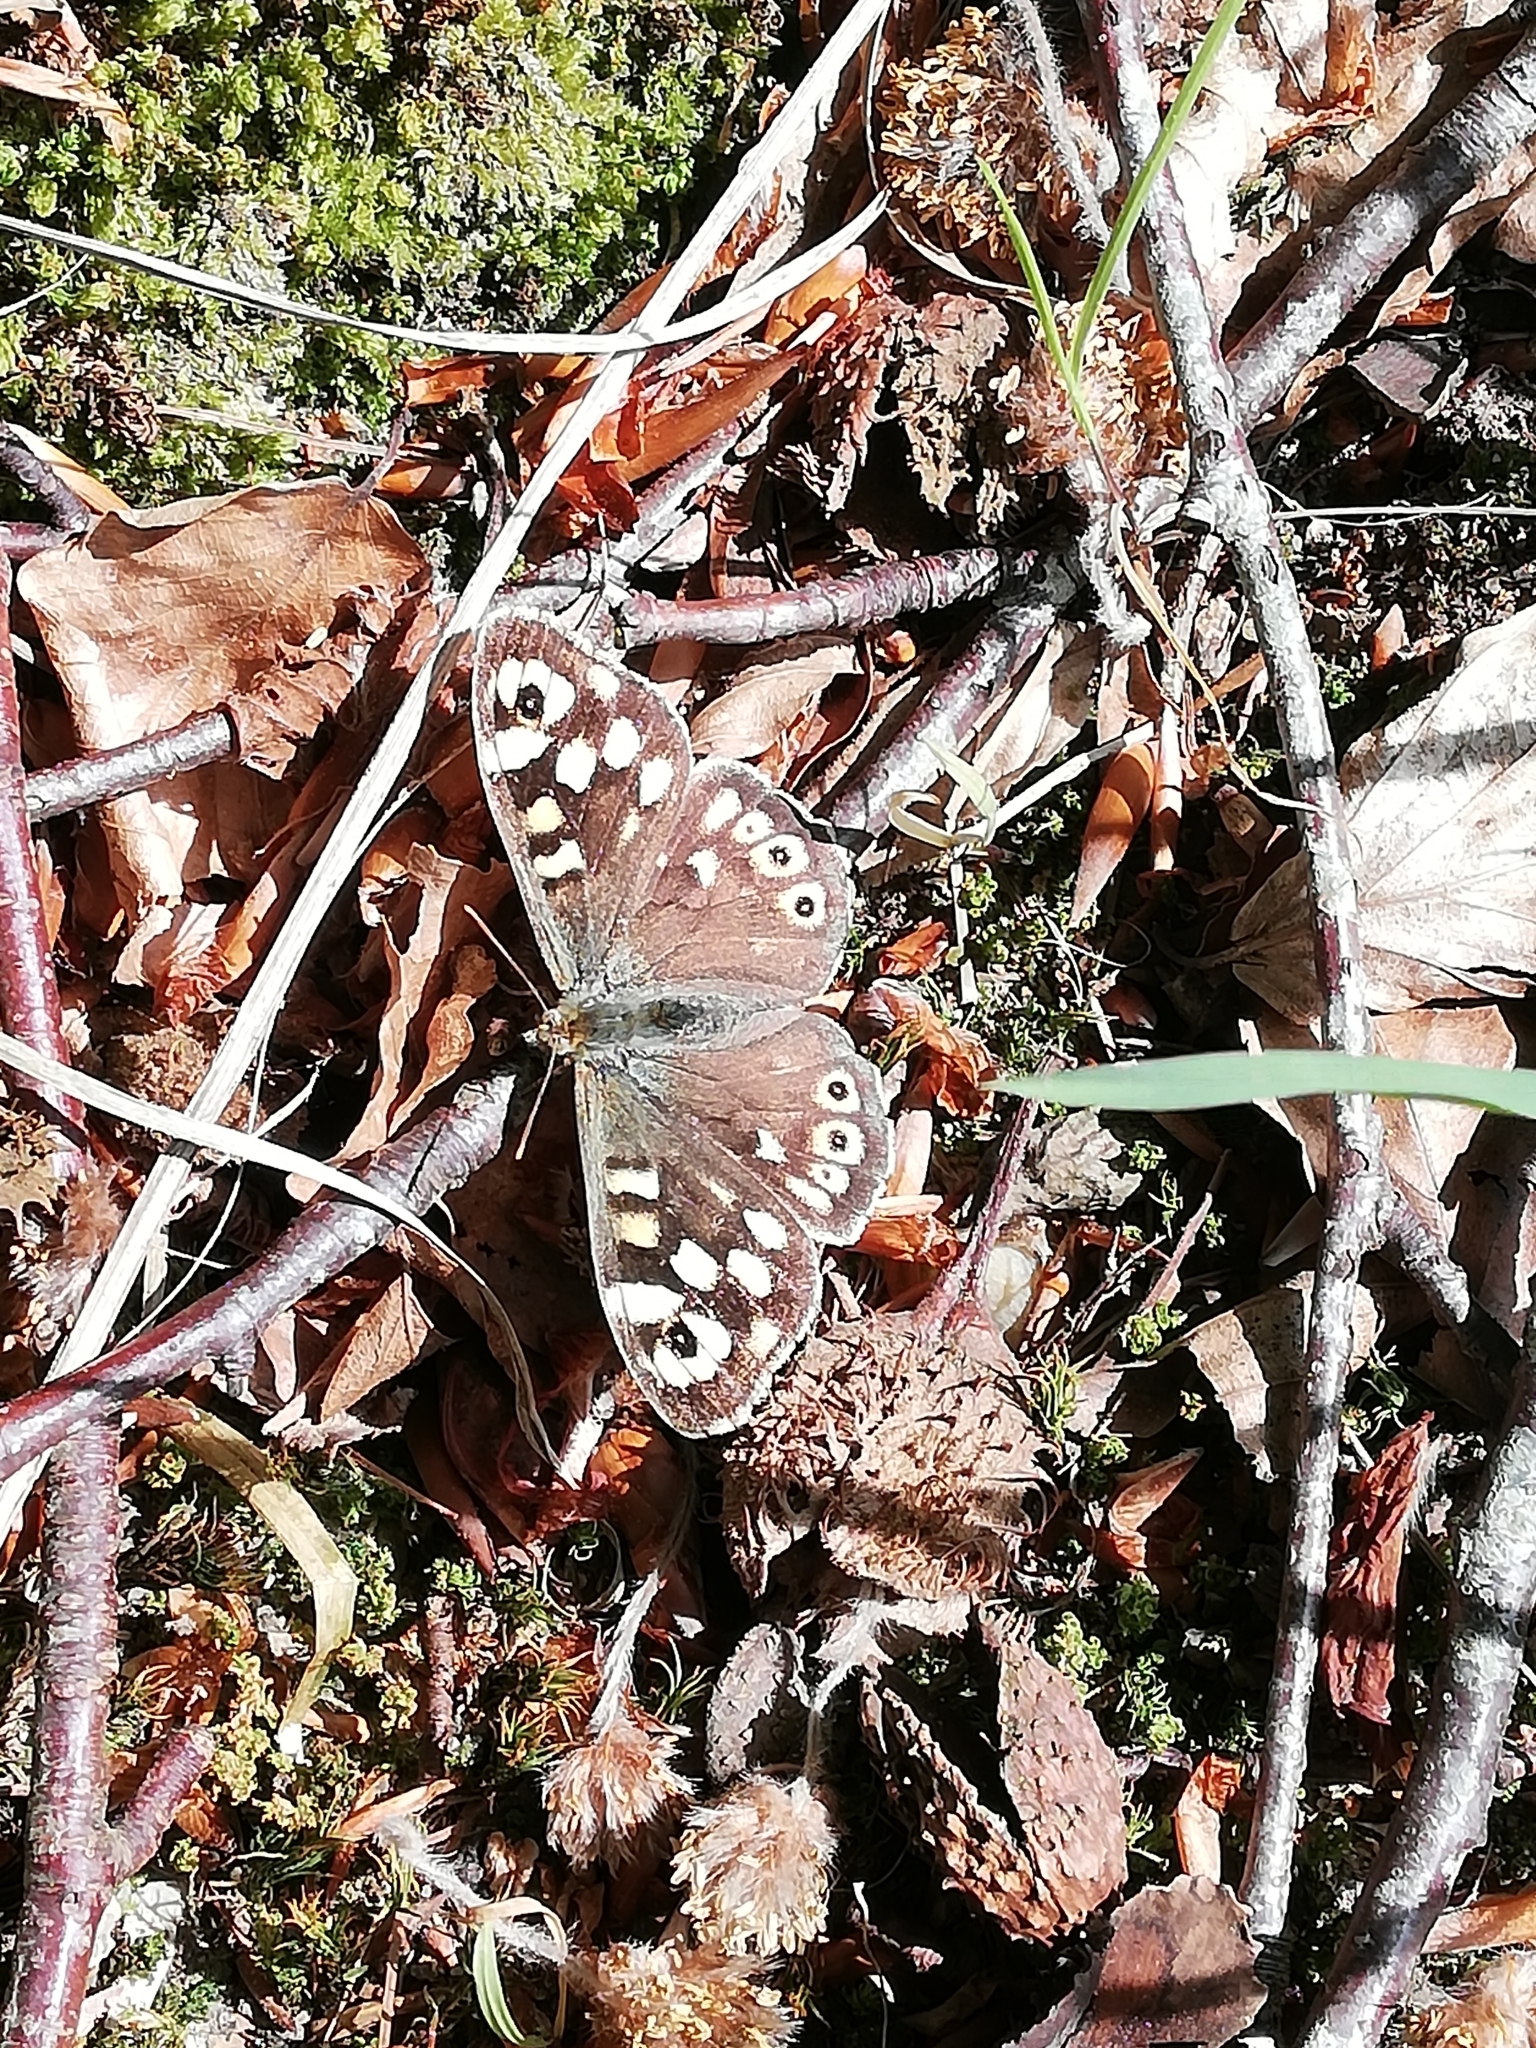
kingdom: Animalia
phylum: Arthropoda
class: Insecta
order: Lepidoptera
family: Nymphalidae
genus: Pararge
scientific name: Pararge aegeria
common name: Speckled wood
